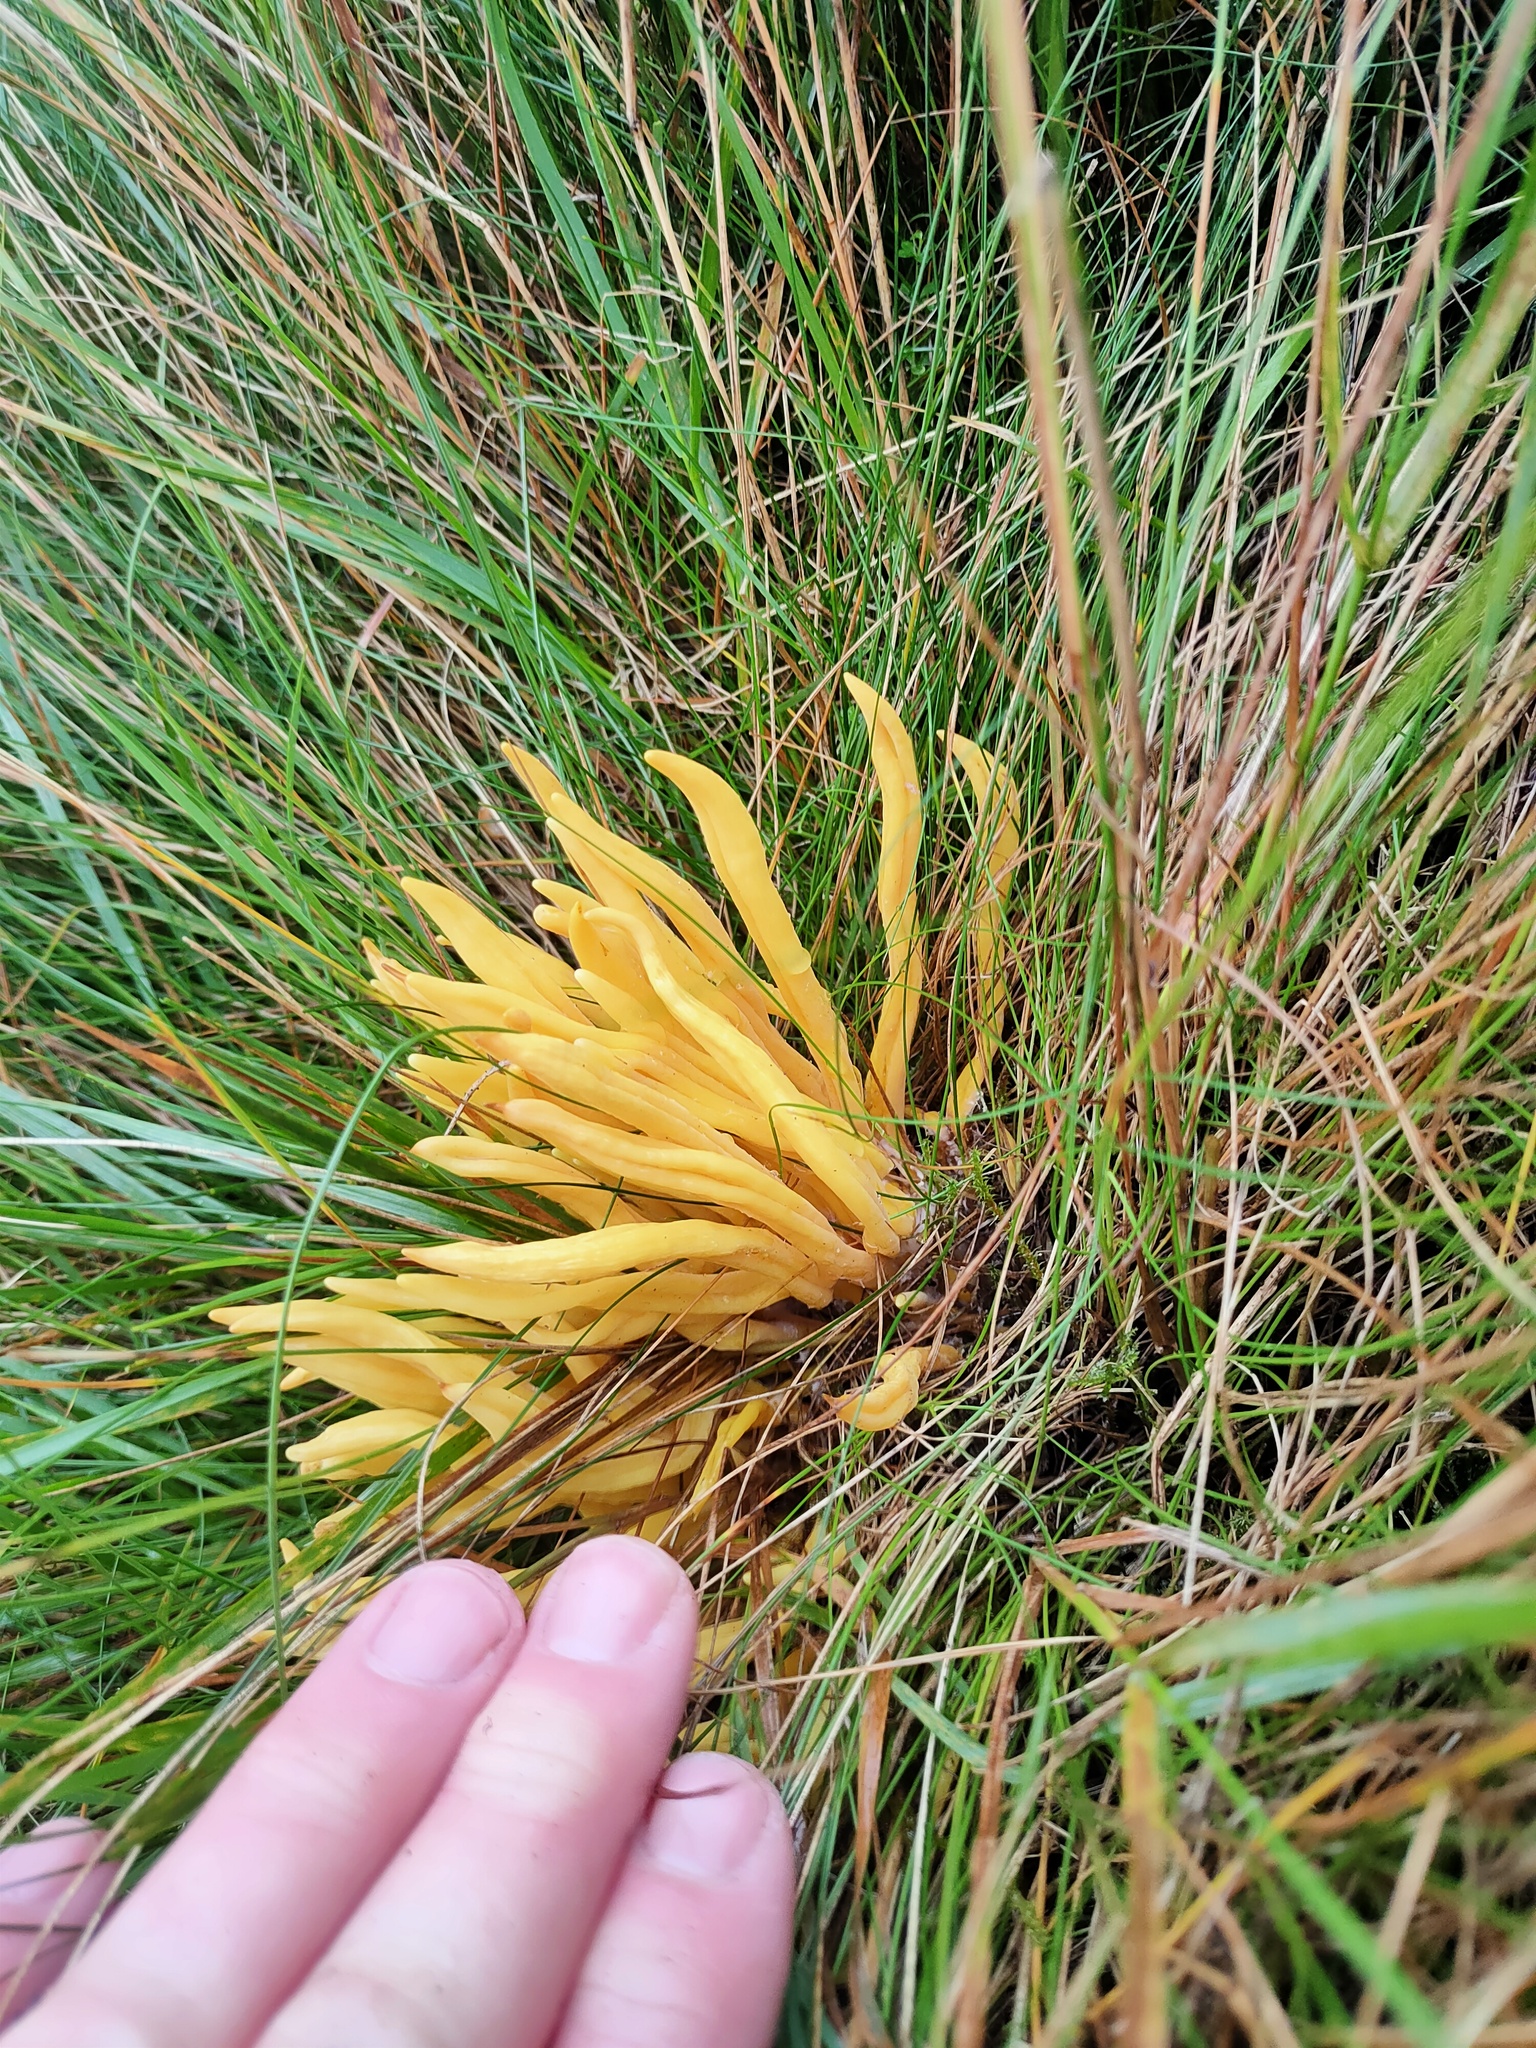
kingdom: Fungi
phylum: Basidiomycota
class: Agaricomycetes
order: Agaricales
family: Clavariaceae
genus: Clavulinopsis
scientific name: Clavulinopsis fusiformis
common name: Golden spindles
